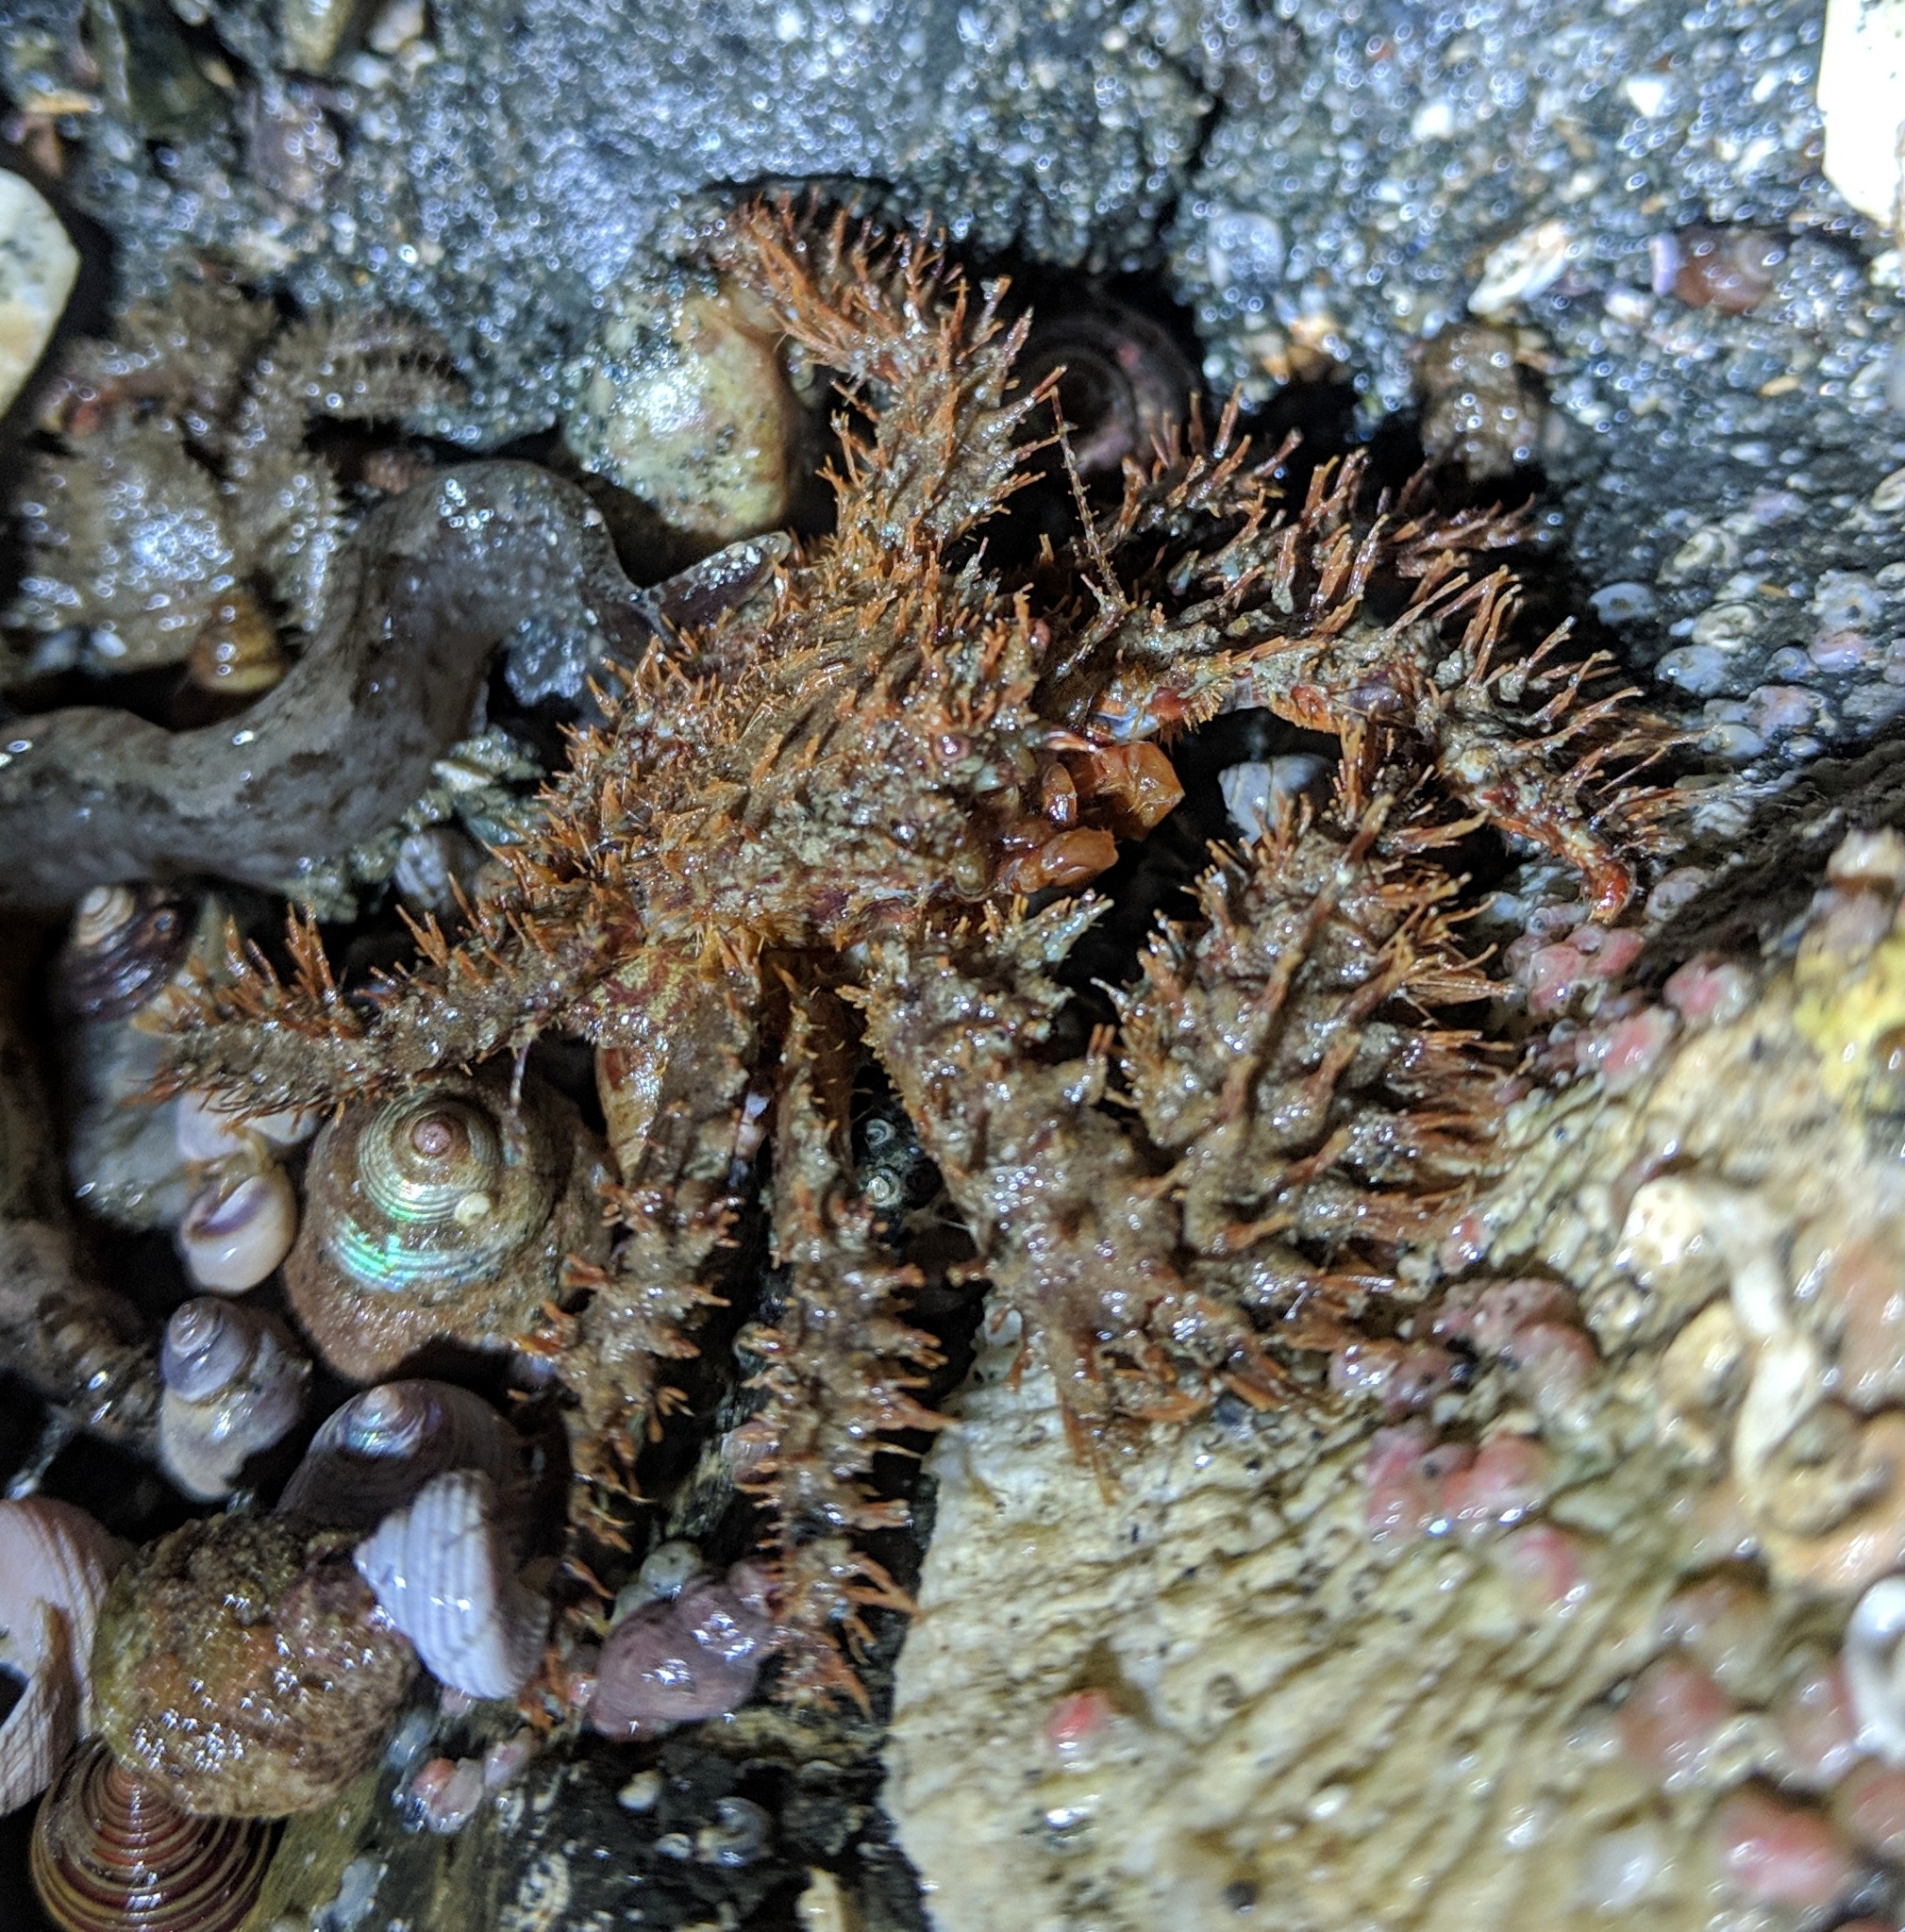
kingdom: Animalia
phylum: Arthropoda
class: Malacostraca
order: Decapoda
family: Hapalogastridae
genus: Hapalogaster
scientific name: Hapalogaster mertensii
